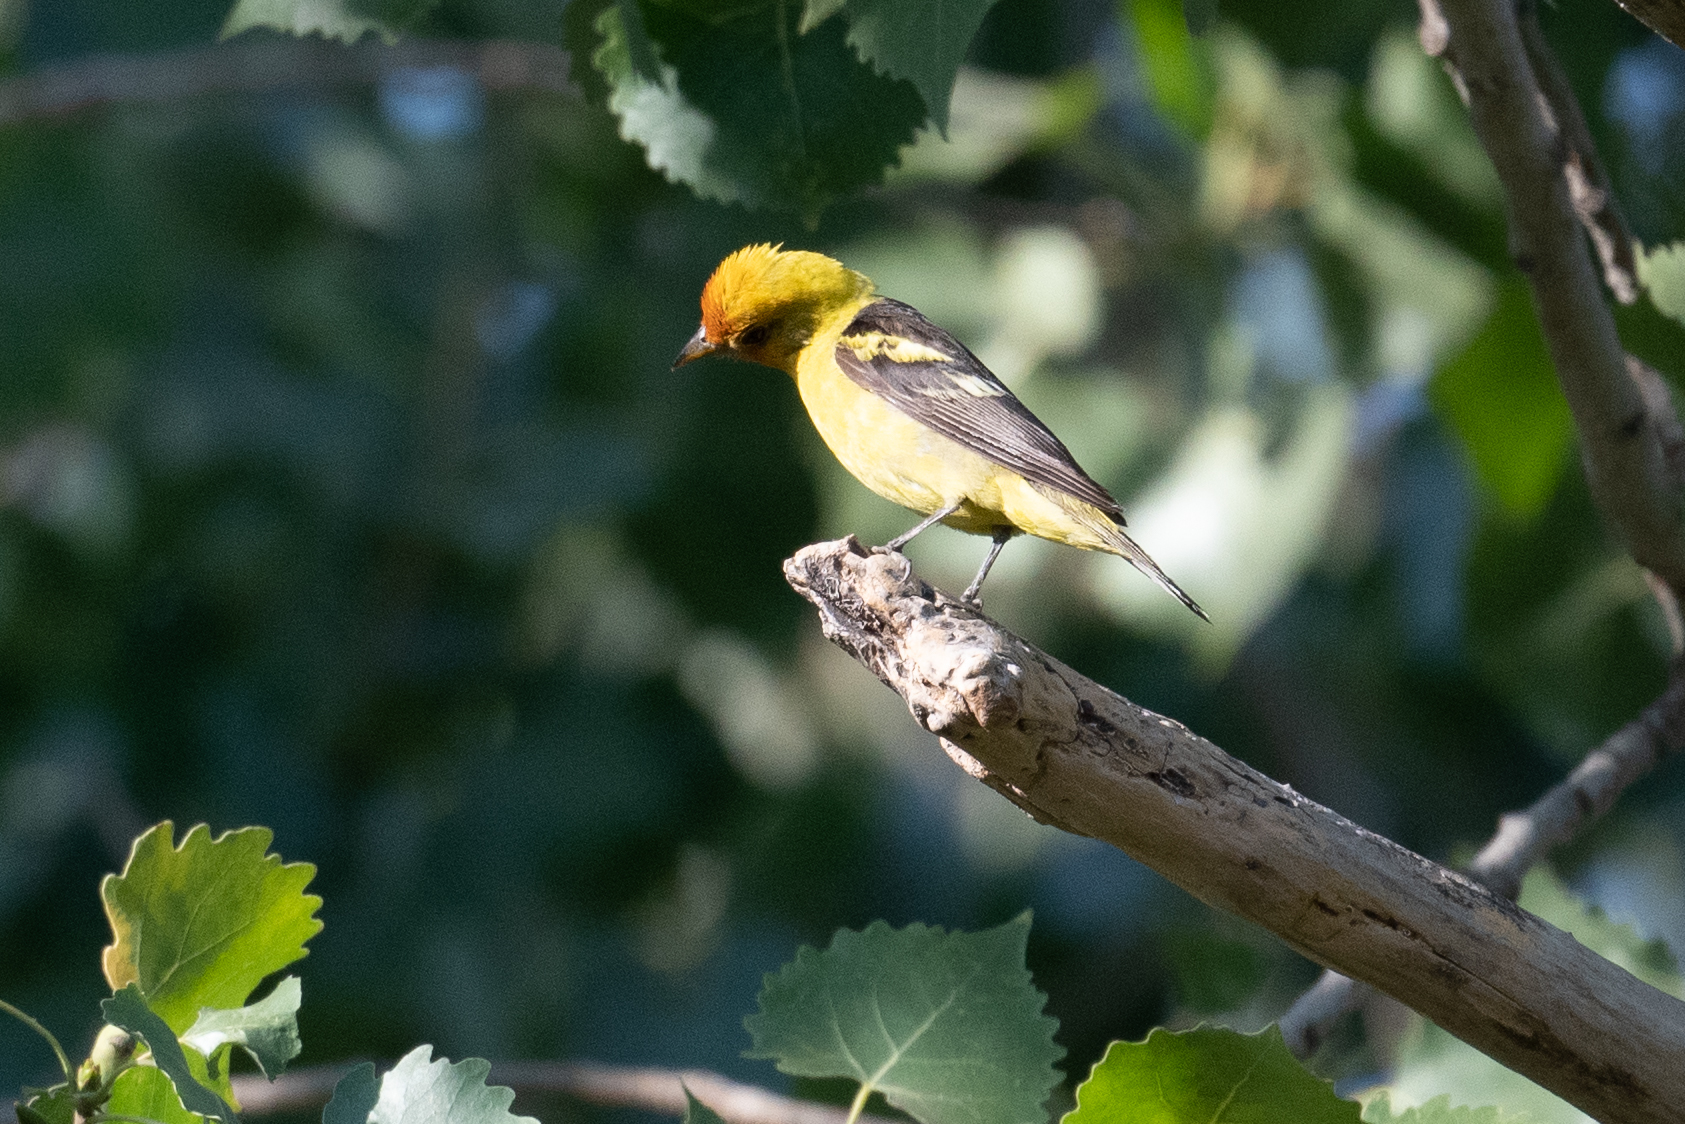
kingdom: Animalia
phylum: Chordata
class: Aves
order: Passeriformes
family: Cardinalidae
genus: Piranga
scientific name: Piranga ludoviciana
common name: Western tanager
